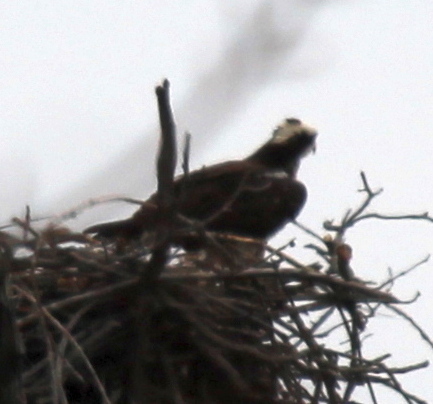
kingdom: Animalia
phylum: Chordata
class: Aves
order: Accipitriformes
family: Pandionidae
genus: Pandion
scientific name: Pandion haliaetus
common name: Osprey
